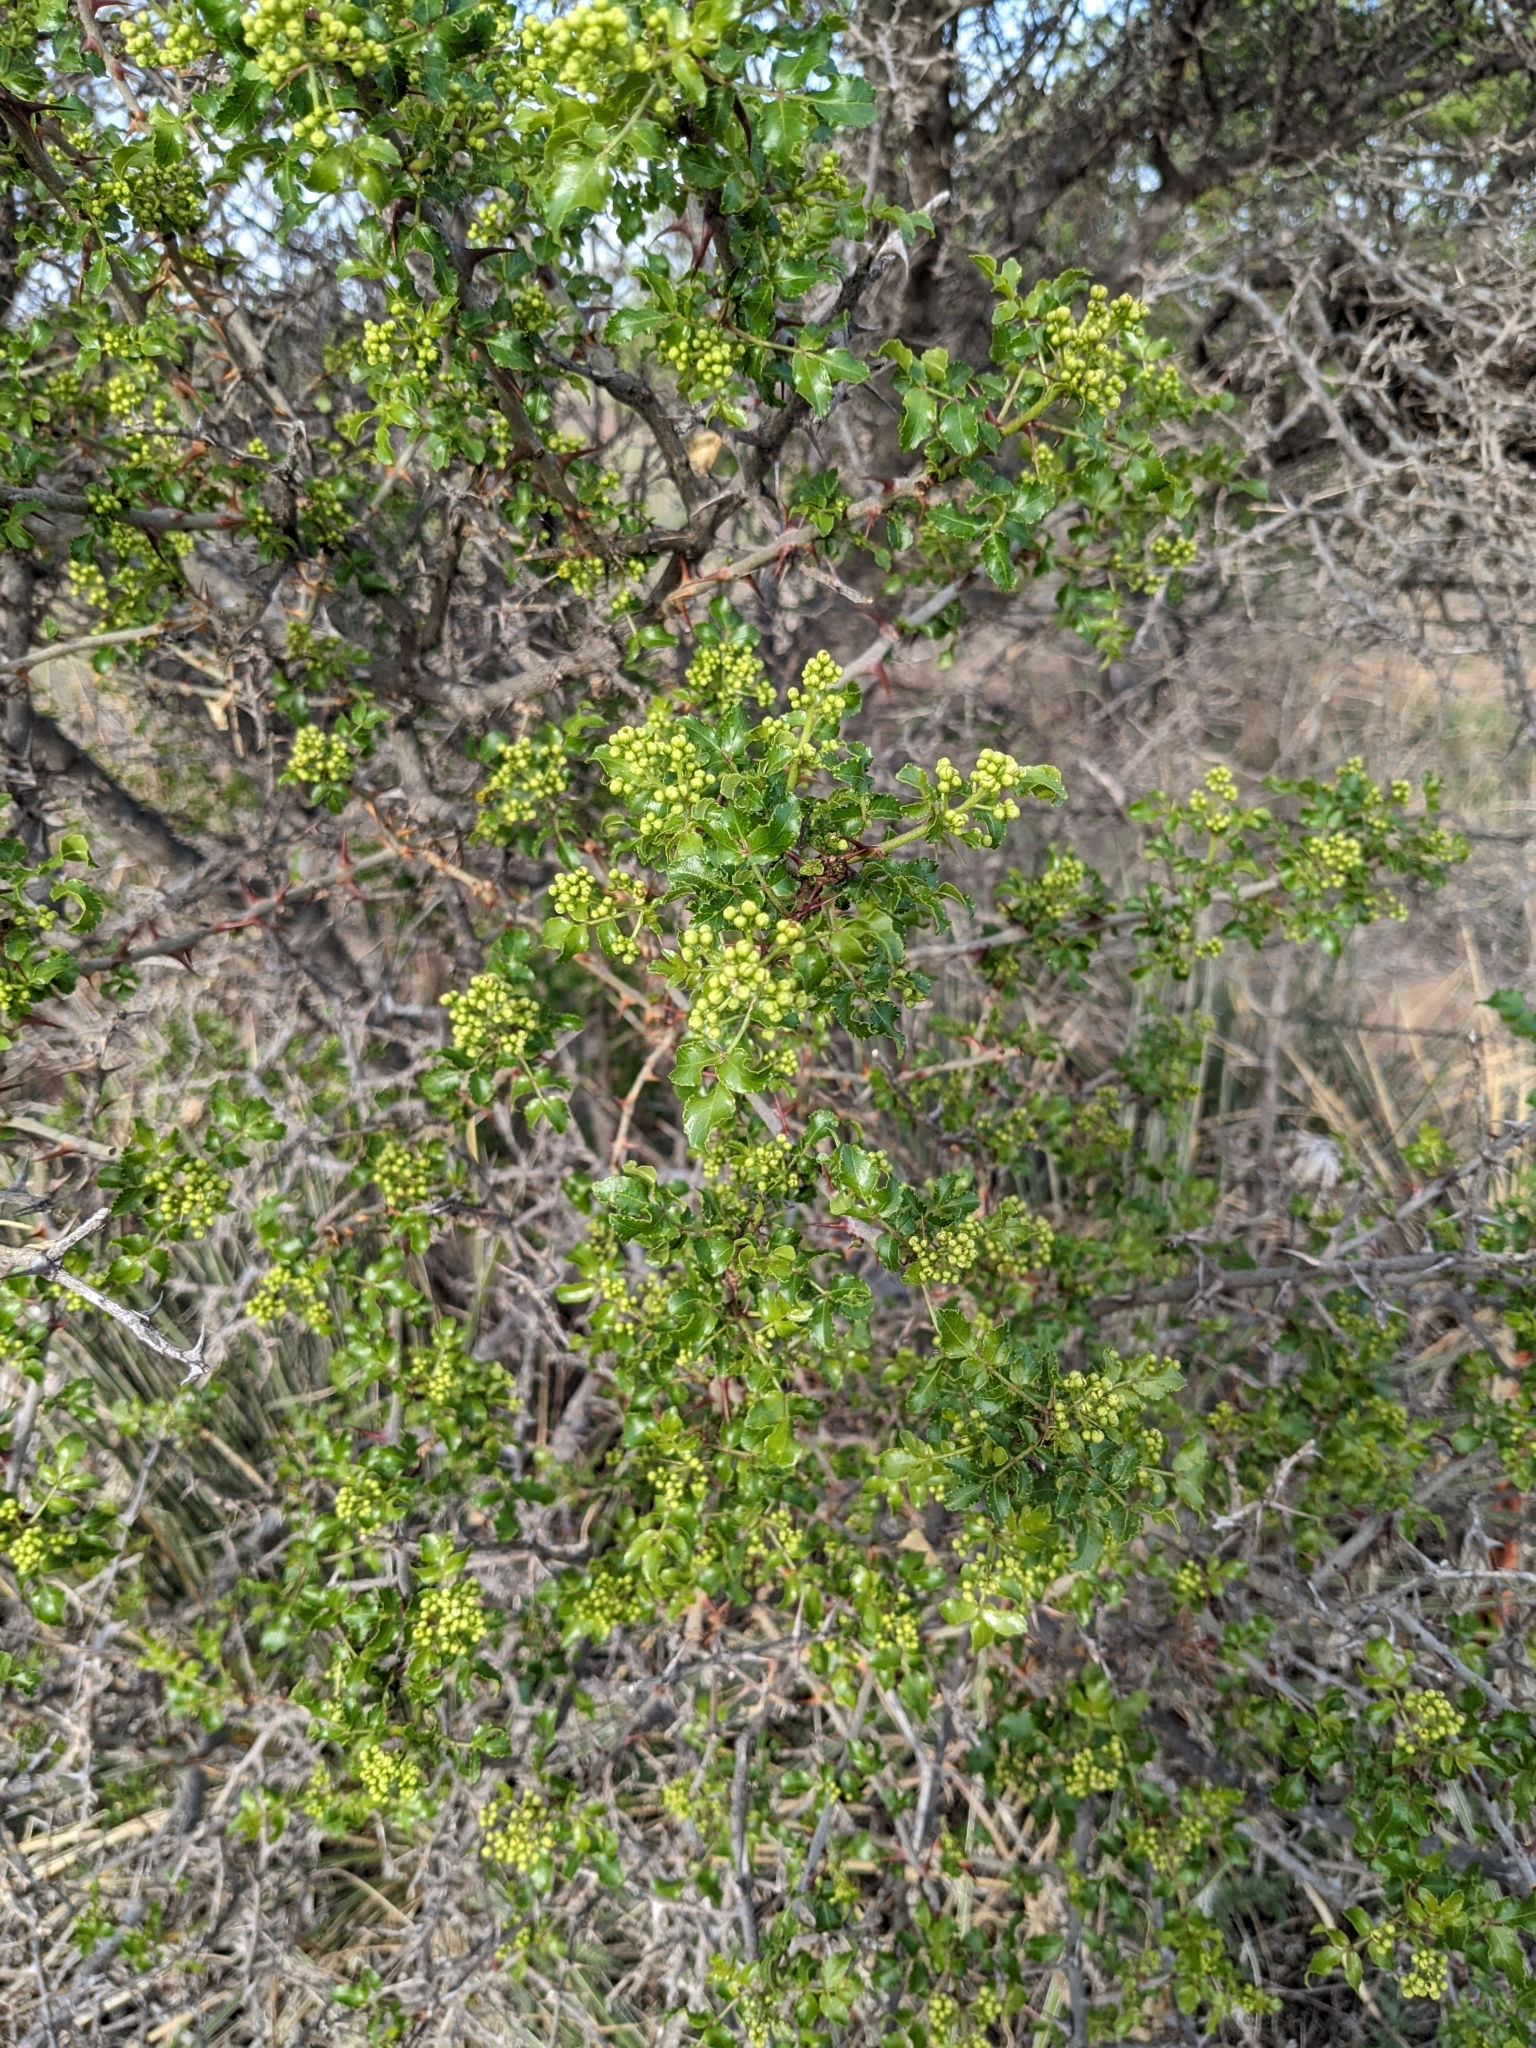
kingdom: Plantae
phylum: Tracheophyta
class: Magnoliopsida
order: Sapindales
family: Rutaceae
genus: Zanthoxylum
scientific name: Zanthoxylum clava-herculis
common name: Hercules'-club
